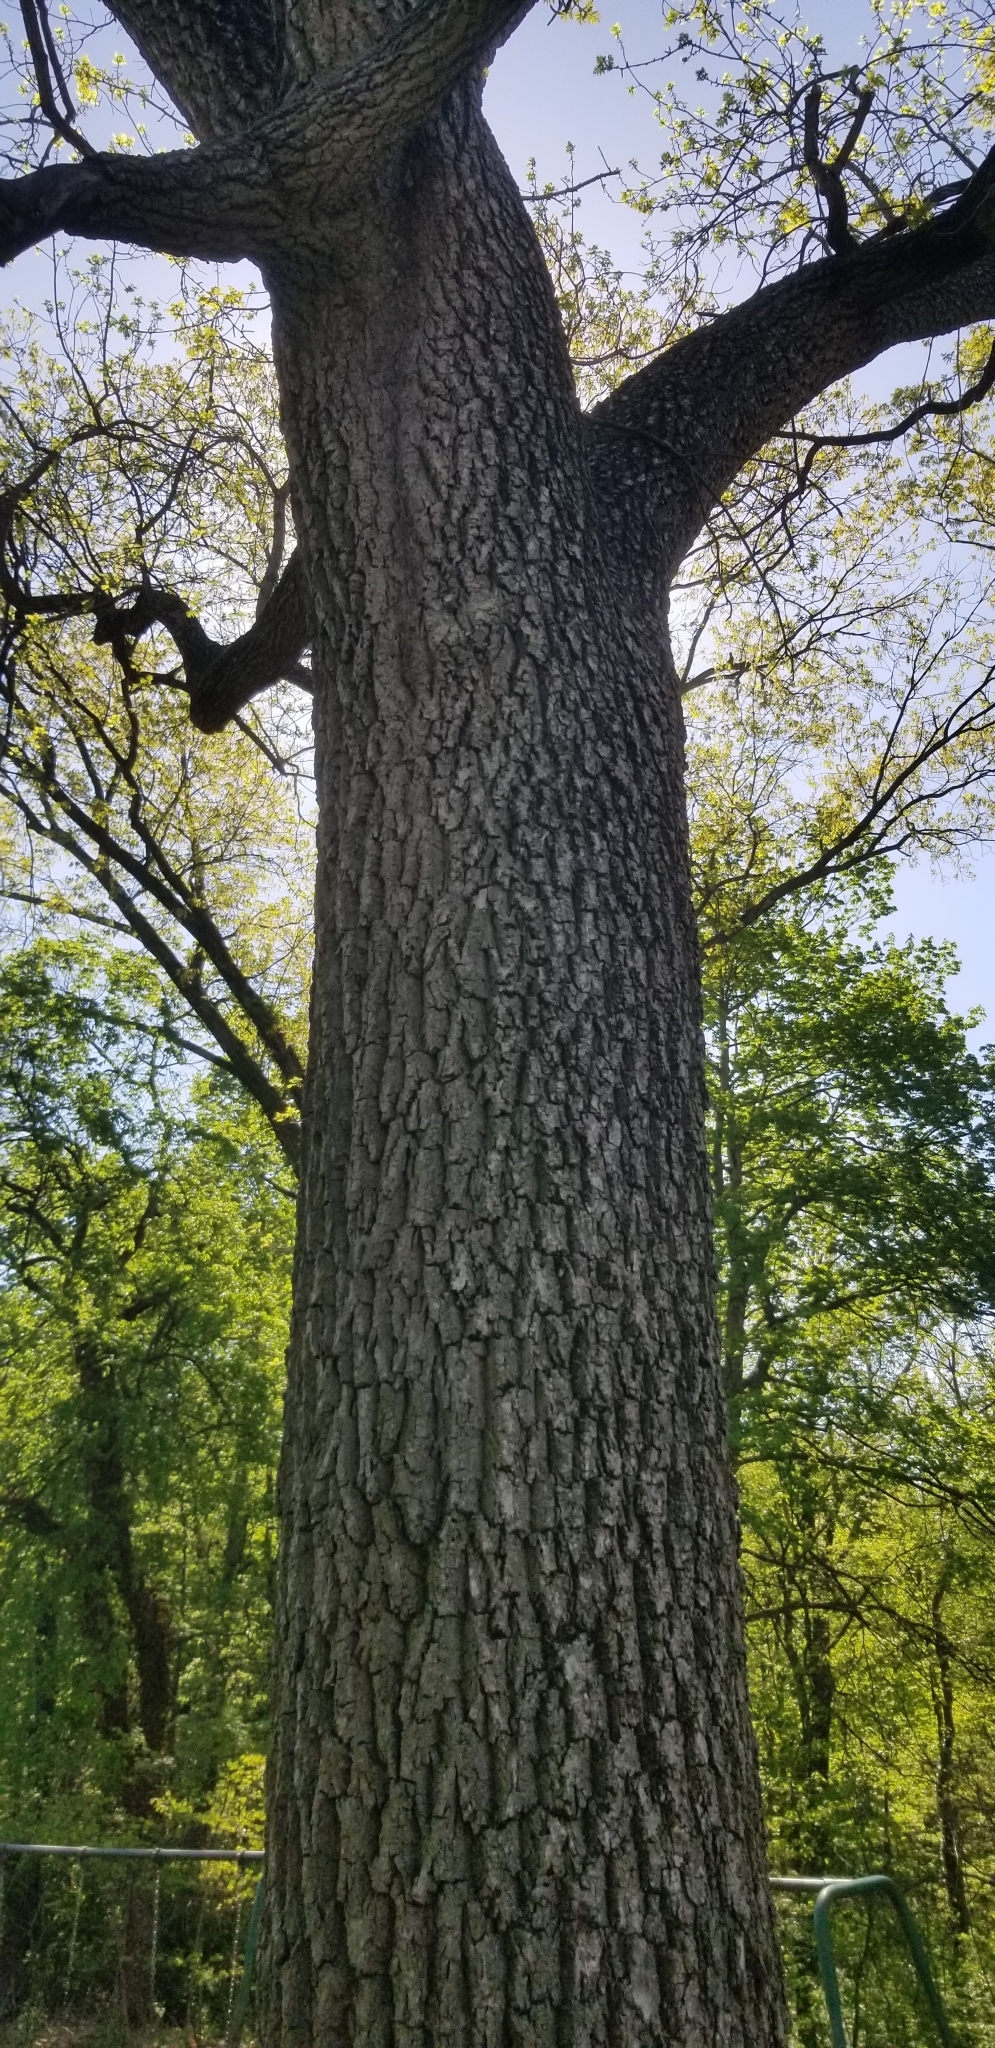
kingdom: Plantae
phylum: Tracheophyta
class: Magnoliopsida
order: Fagales
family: Juglandaceae
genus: Juglans
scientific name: Juglans nigra
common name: Black walnut
